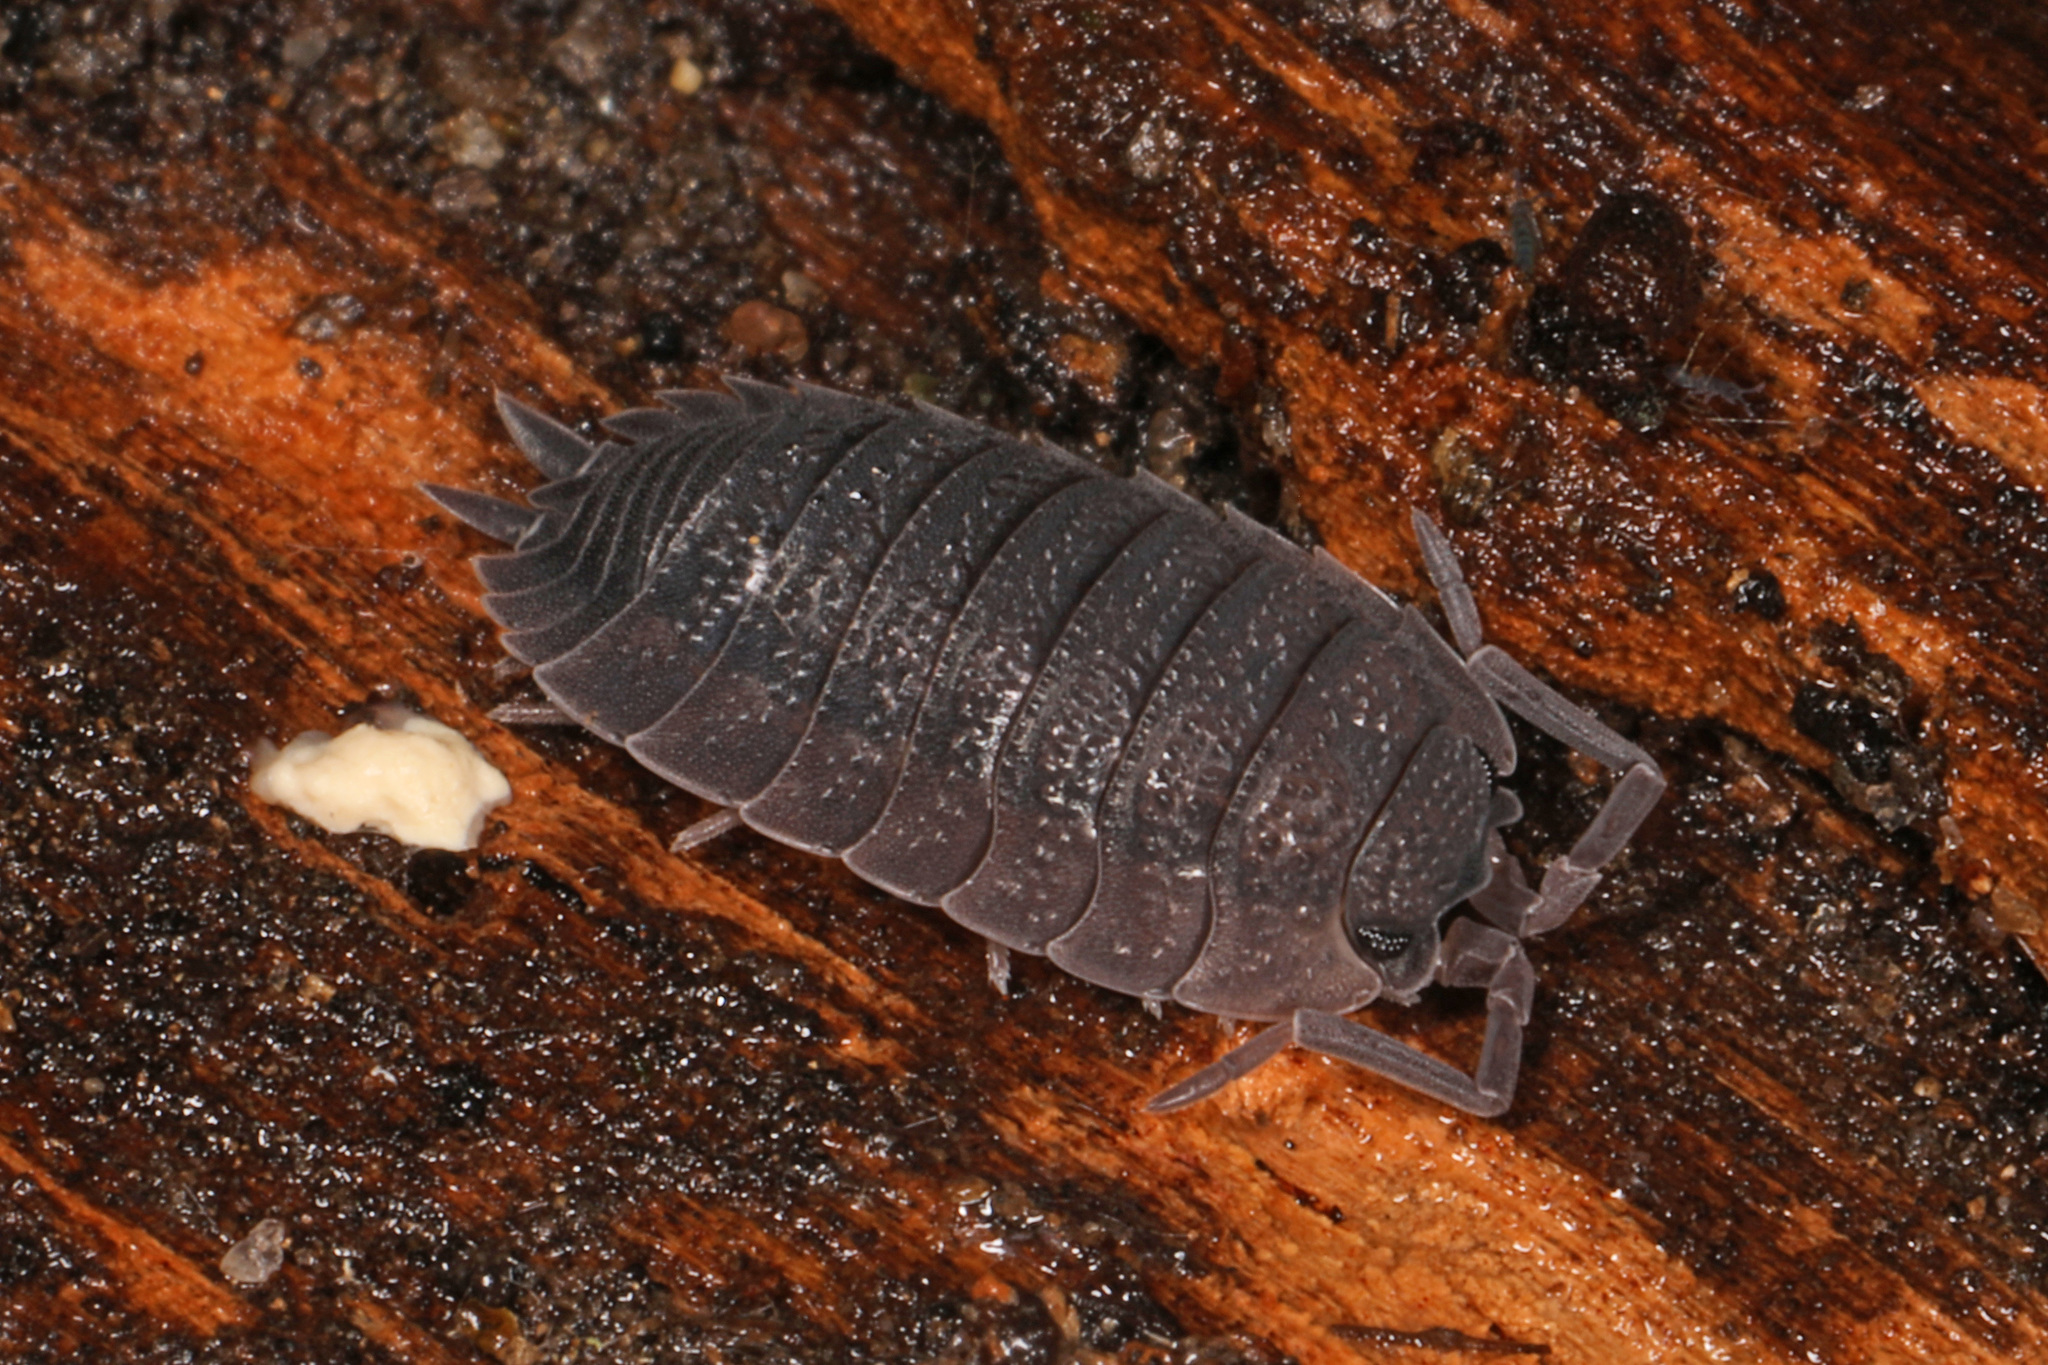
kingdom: Animalia
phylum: Arthropoda
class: Malacostraca
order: Isopoda
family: Porcellionidae
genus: Porcellio
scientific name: Porcellio scaber
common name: Common rough woodlouse
